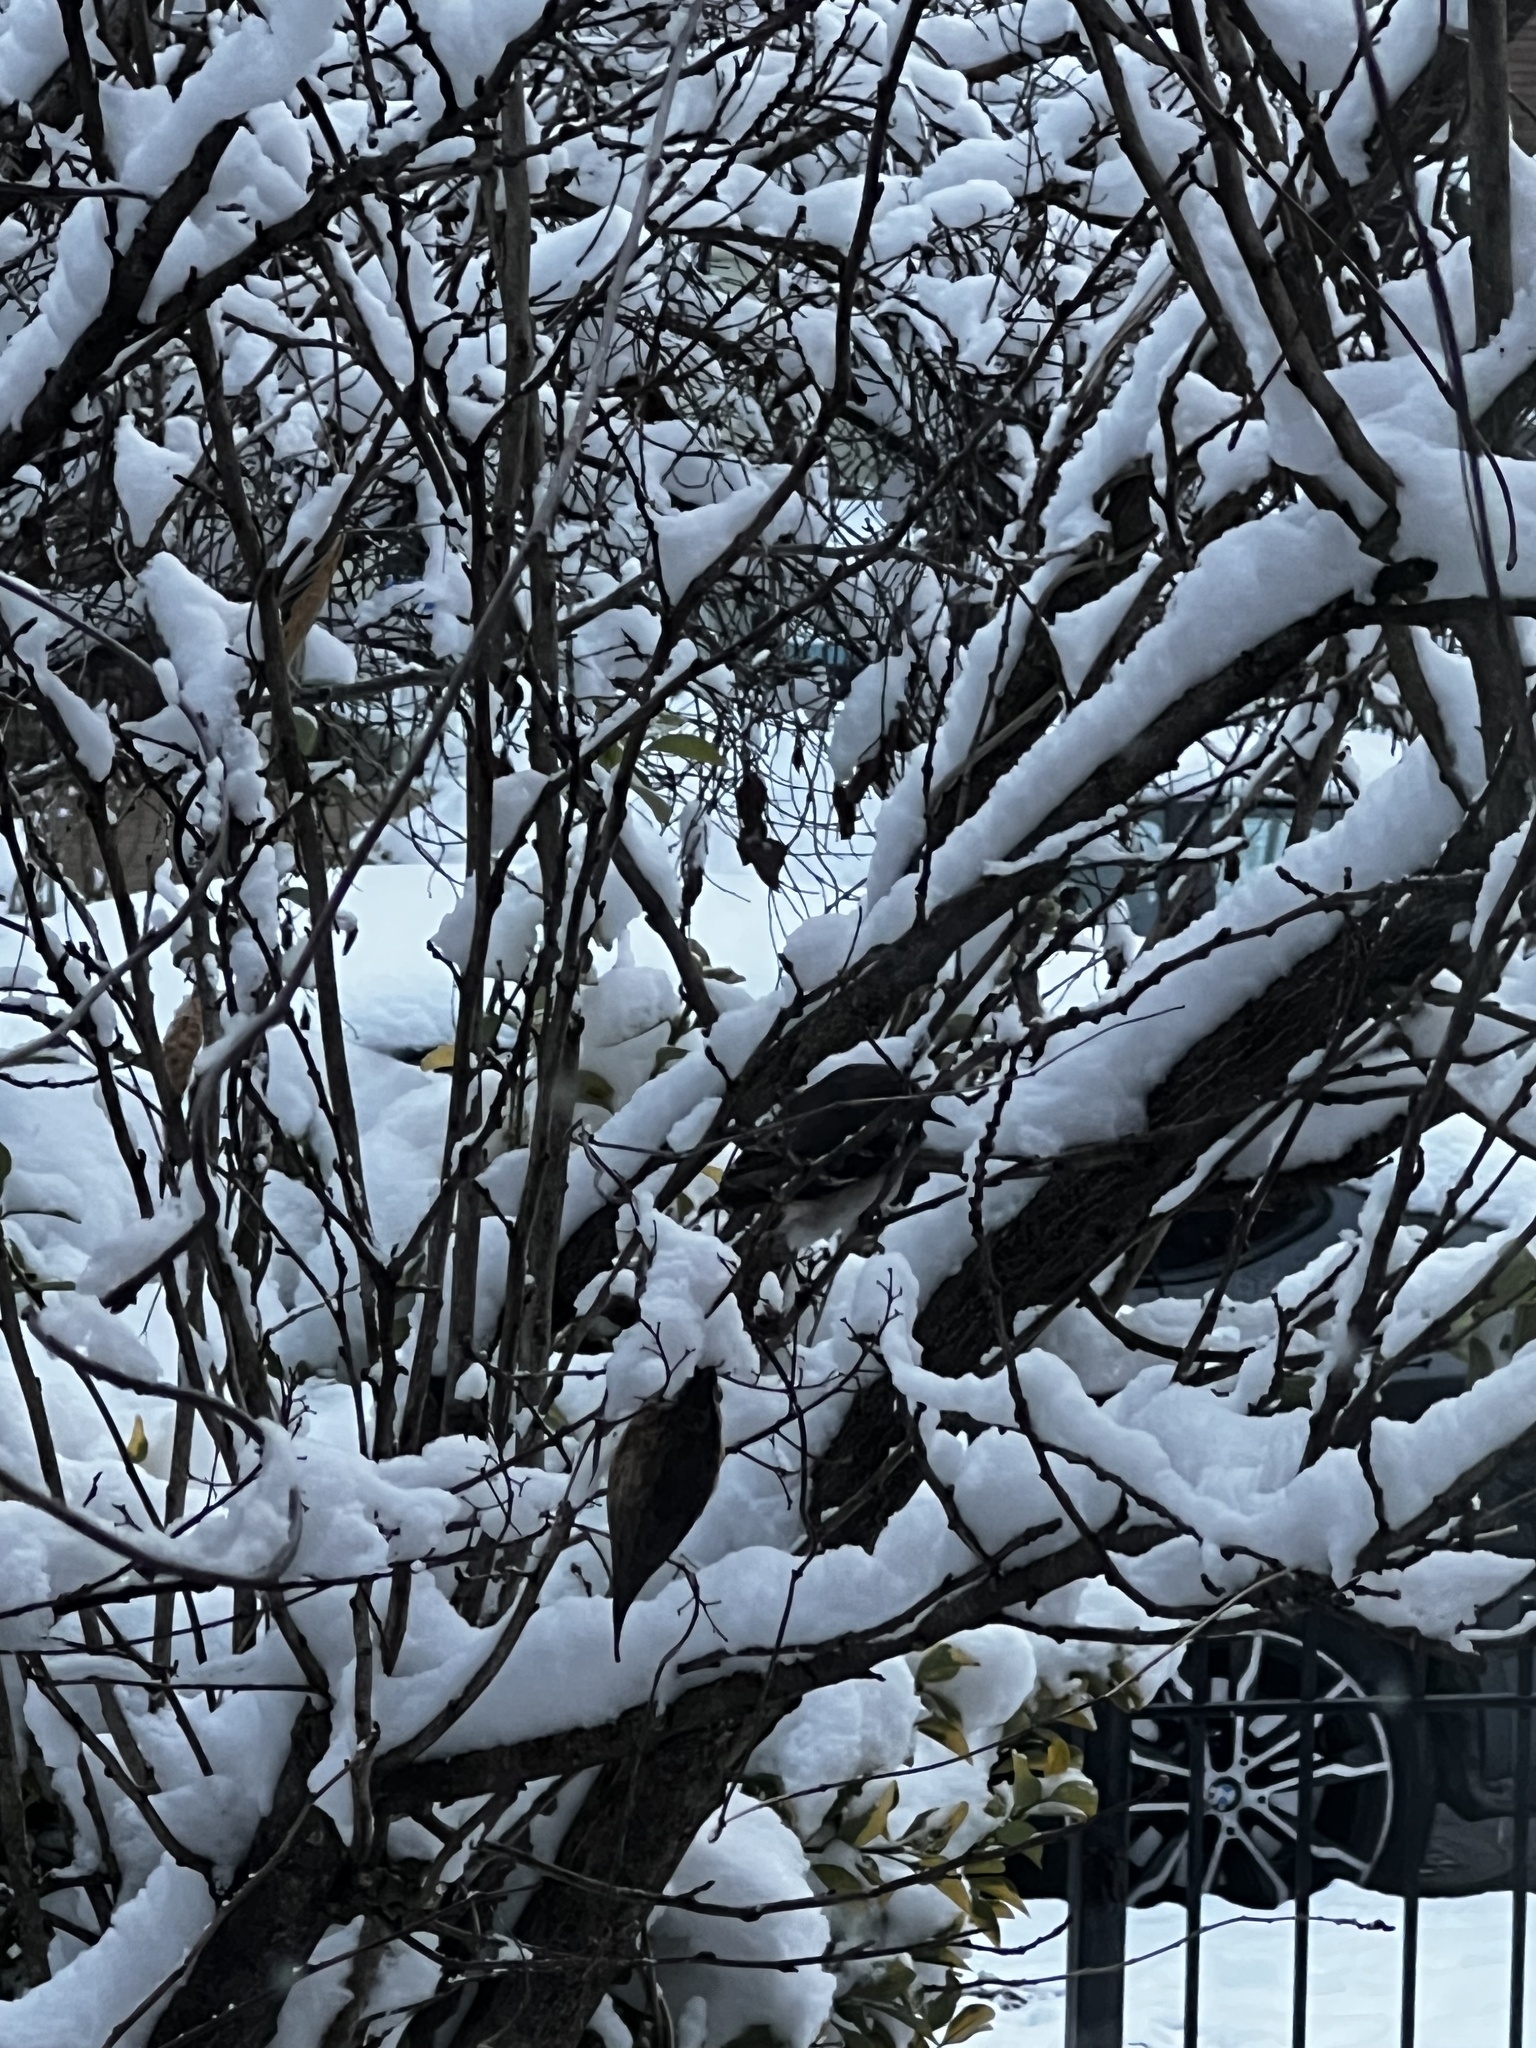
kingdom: Animalia
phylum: Chordata
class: Aves
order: Passeriformes
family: Mimidae
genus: Mimus
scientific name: Mimus polyglottos
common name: Northern mockingbird
